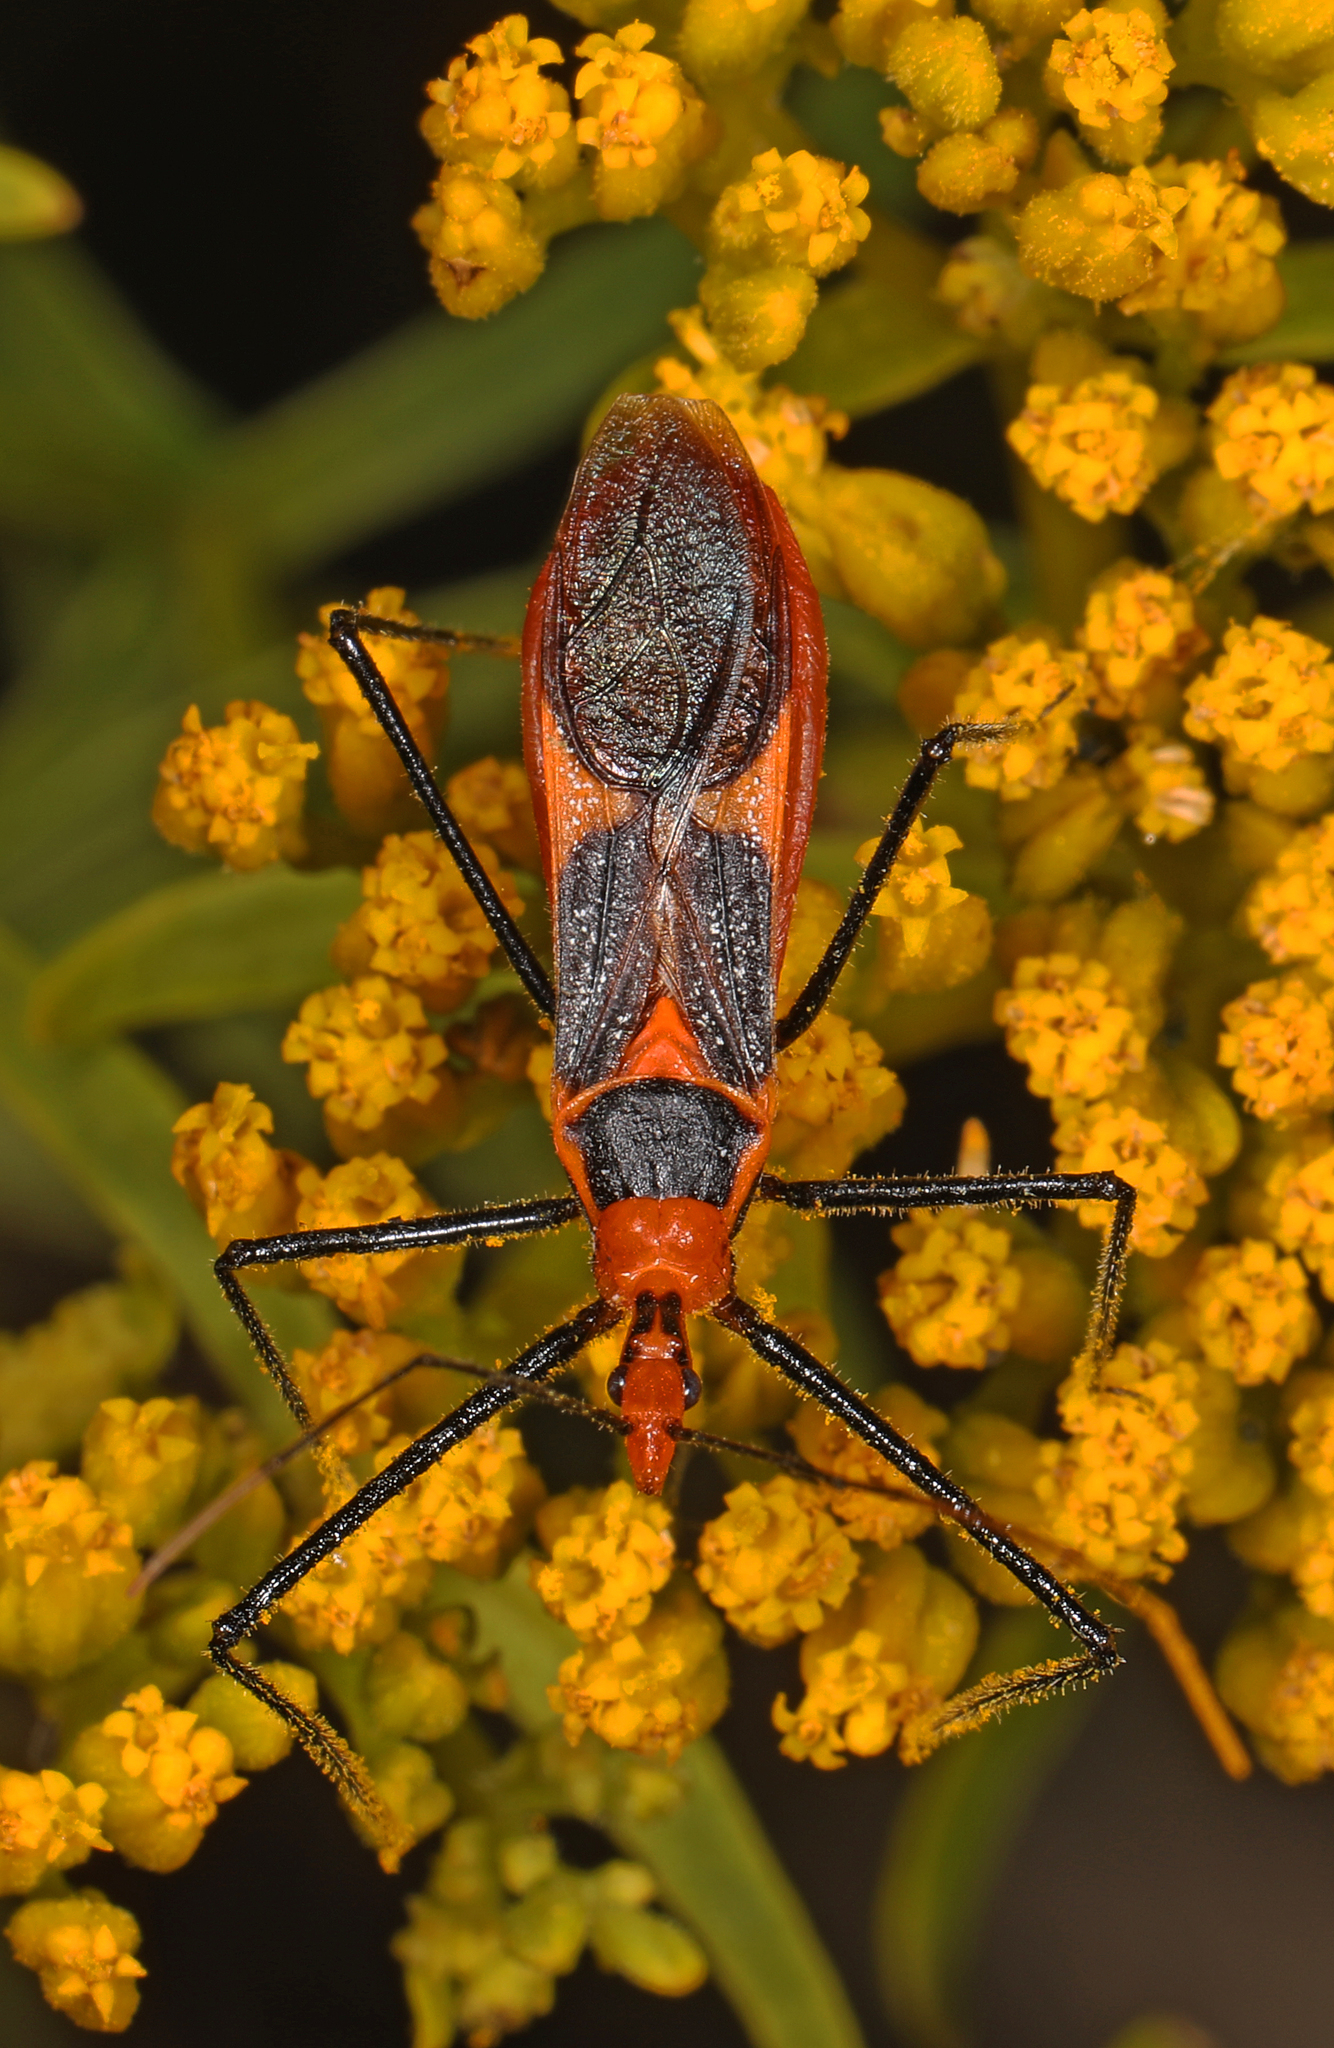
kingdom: Animalia
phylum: Arthropoda
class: Insecta
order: Hemiptera
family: Reduviidae
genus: Zelus
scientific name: Zelus longipes
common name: Milkweed assassin bug
